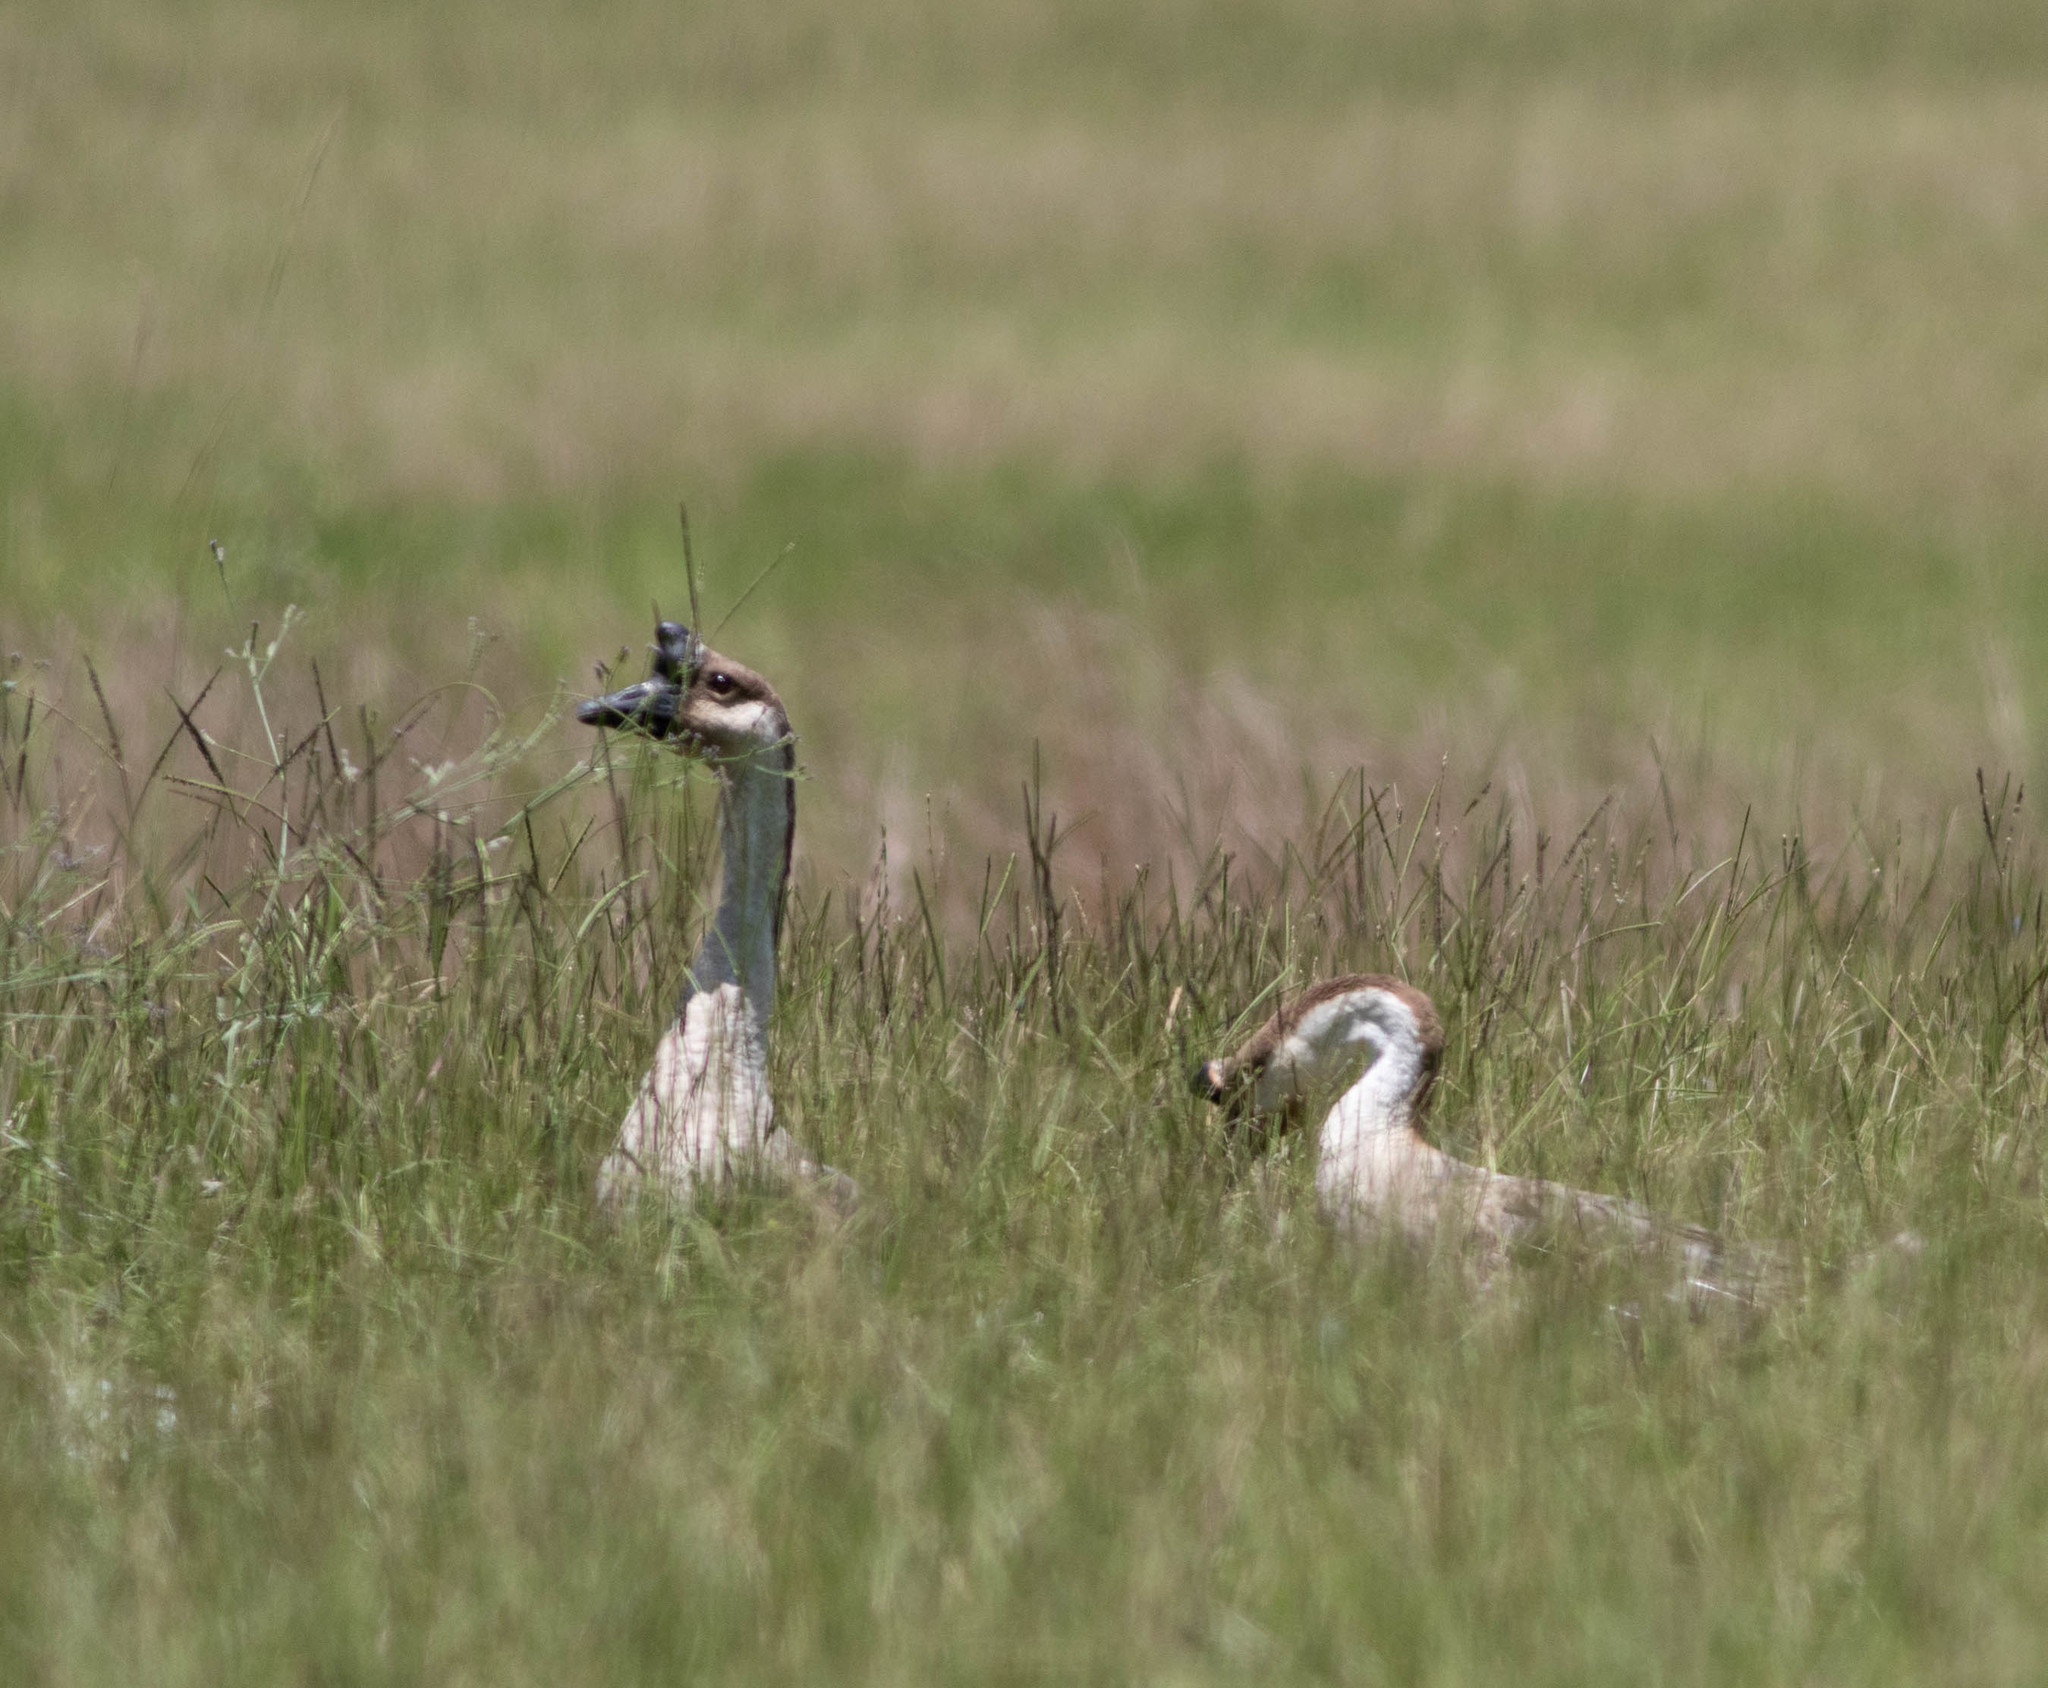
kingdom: Animalia
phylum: Chordata
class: Aves
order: Anseriformes
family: Anatidae
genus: Anser
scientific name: Anser cygnoides
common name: Swan goose
